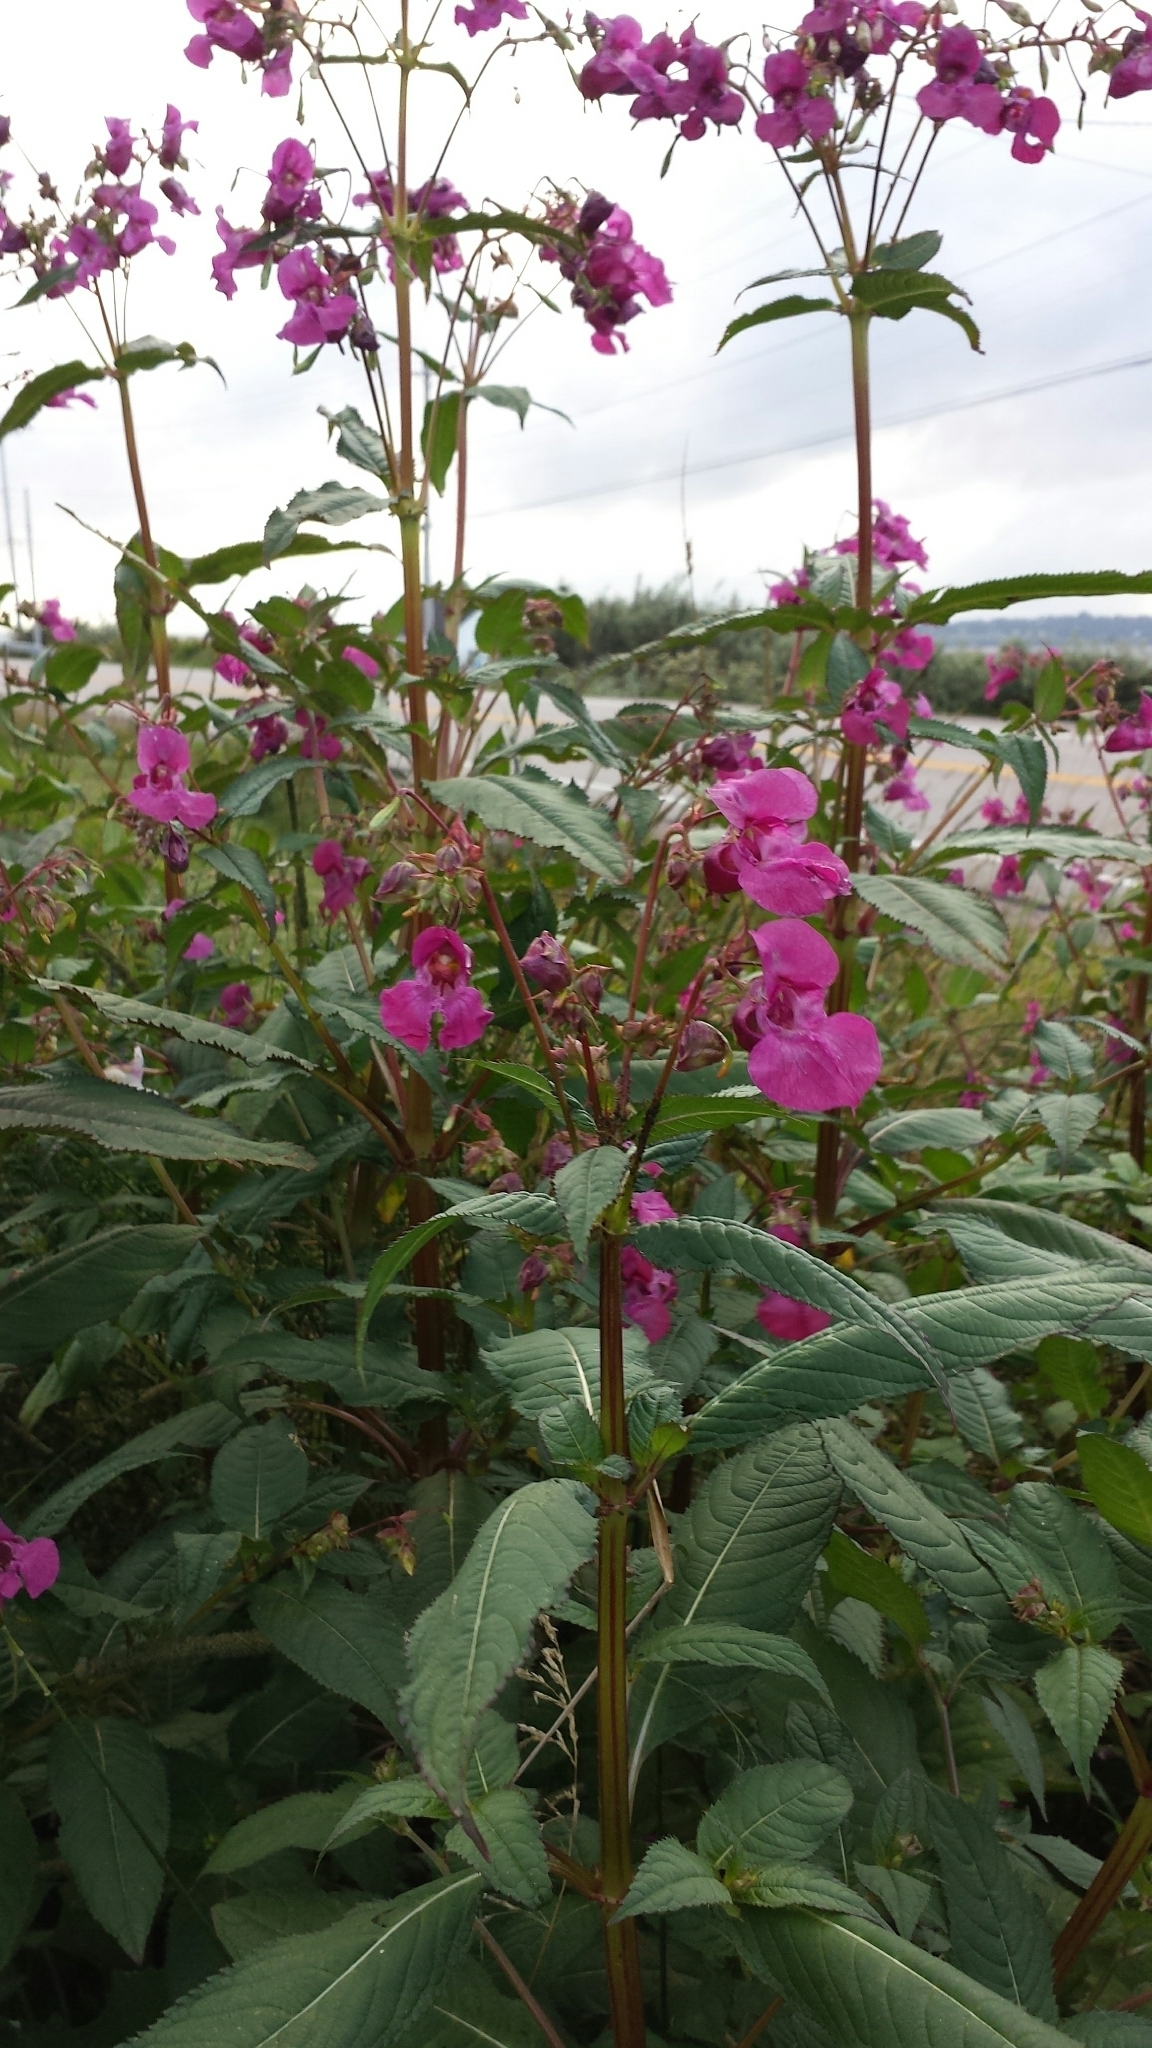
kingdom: Plantae
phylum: Tracheophyta
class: Magnoliopsida
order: Ericales
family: Balsaminaceae
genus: Impatiens
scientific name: Impatiens glandulifera
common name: Himalayan balsam
